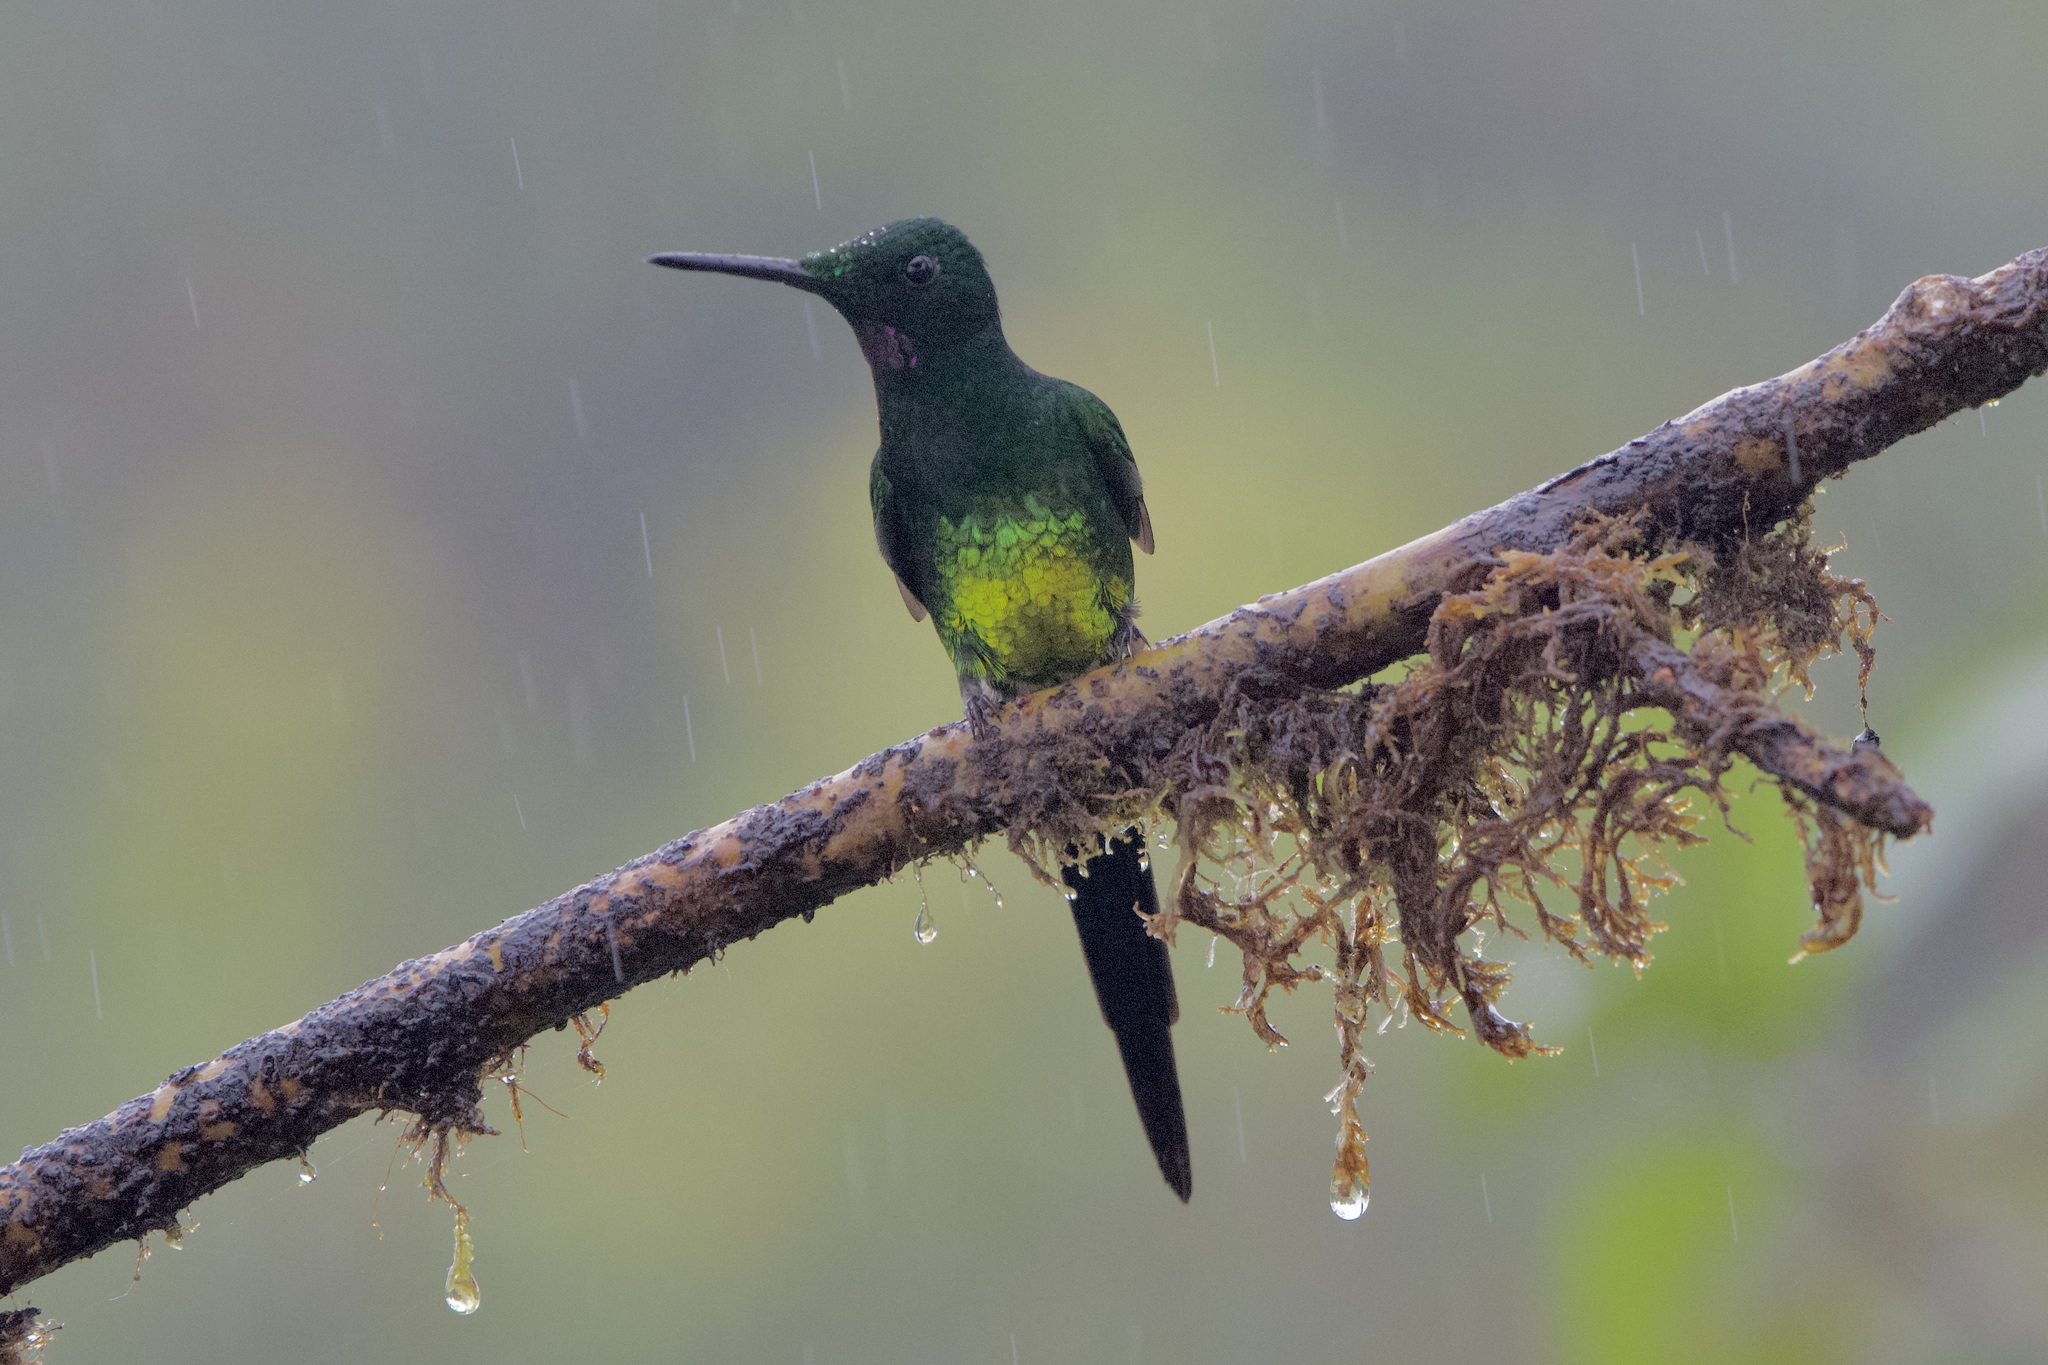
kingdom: Animalia
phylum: Chordata
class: Aves
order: Apodiformes
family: Trochilidae
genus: Heliodoxa
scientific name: Heliodoxa imperatrix
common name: Empress brilliant
